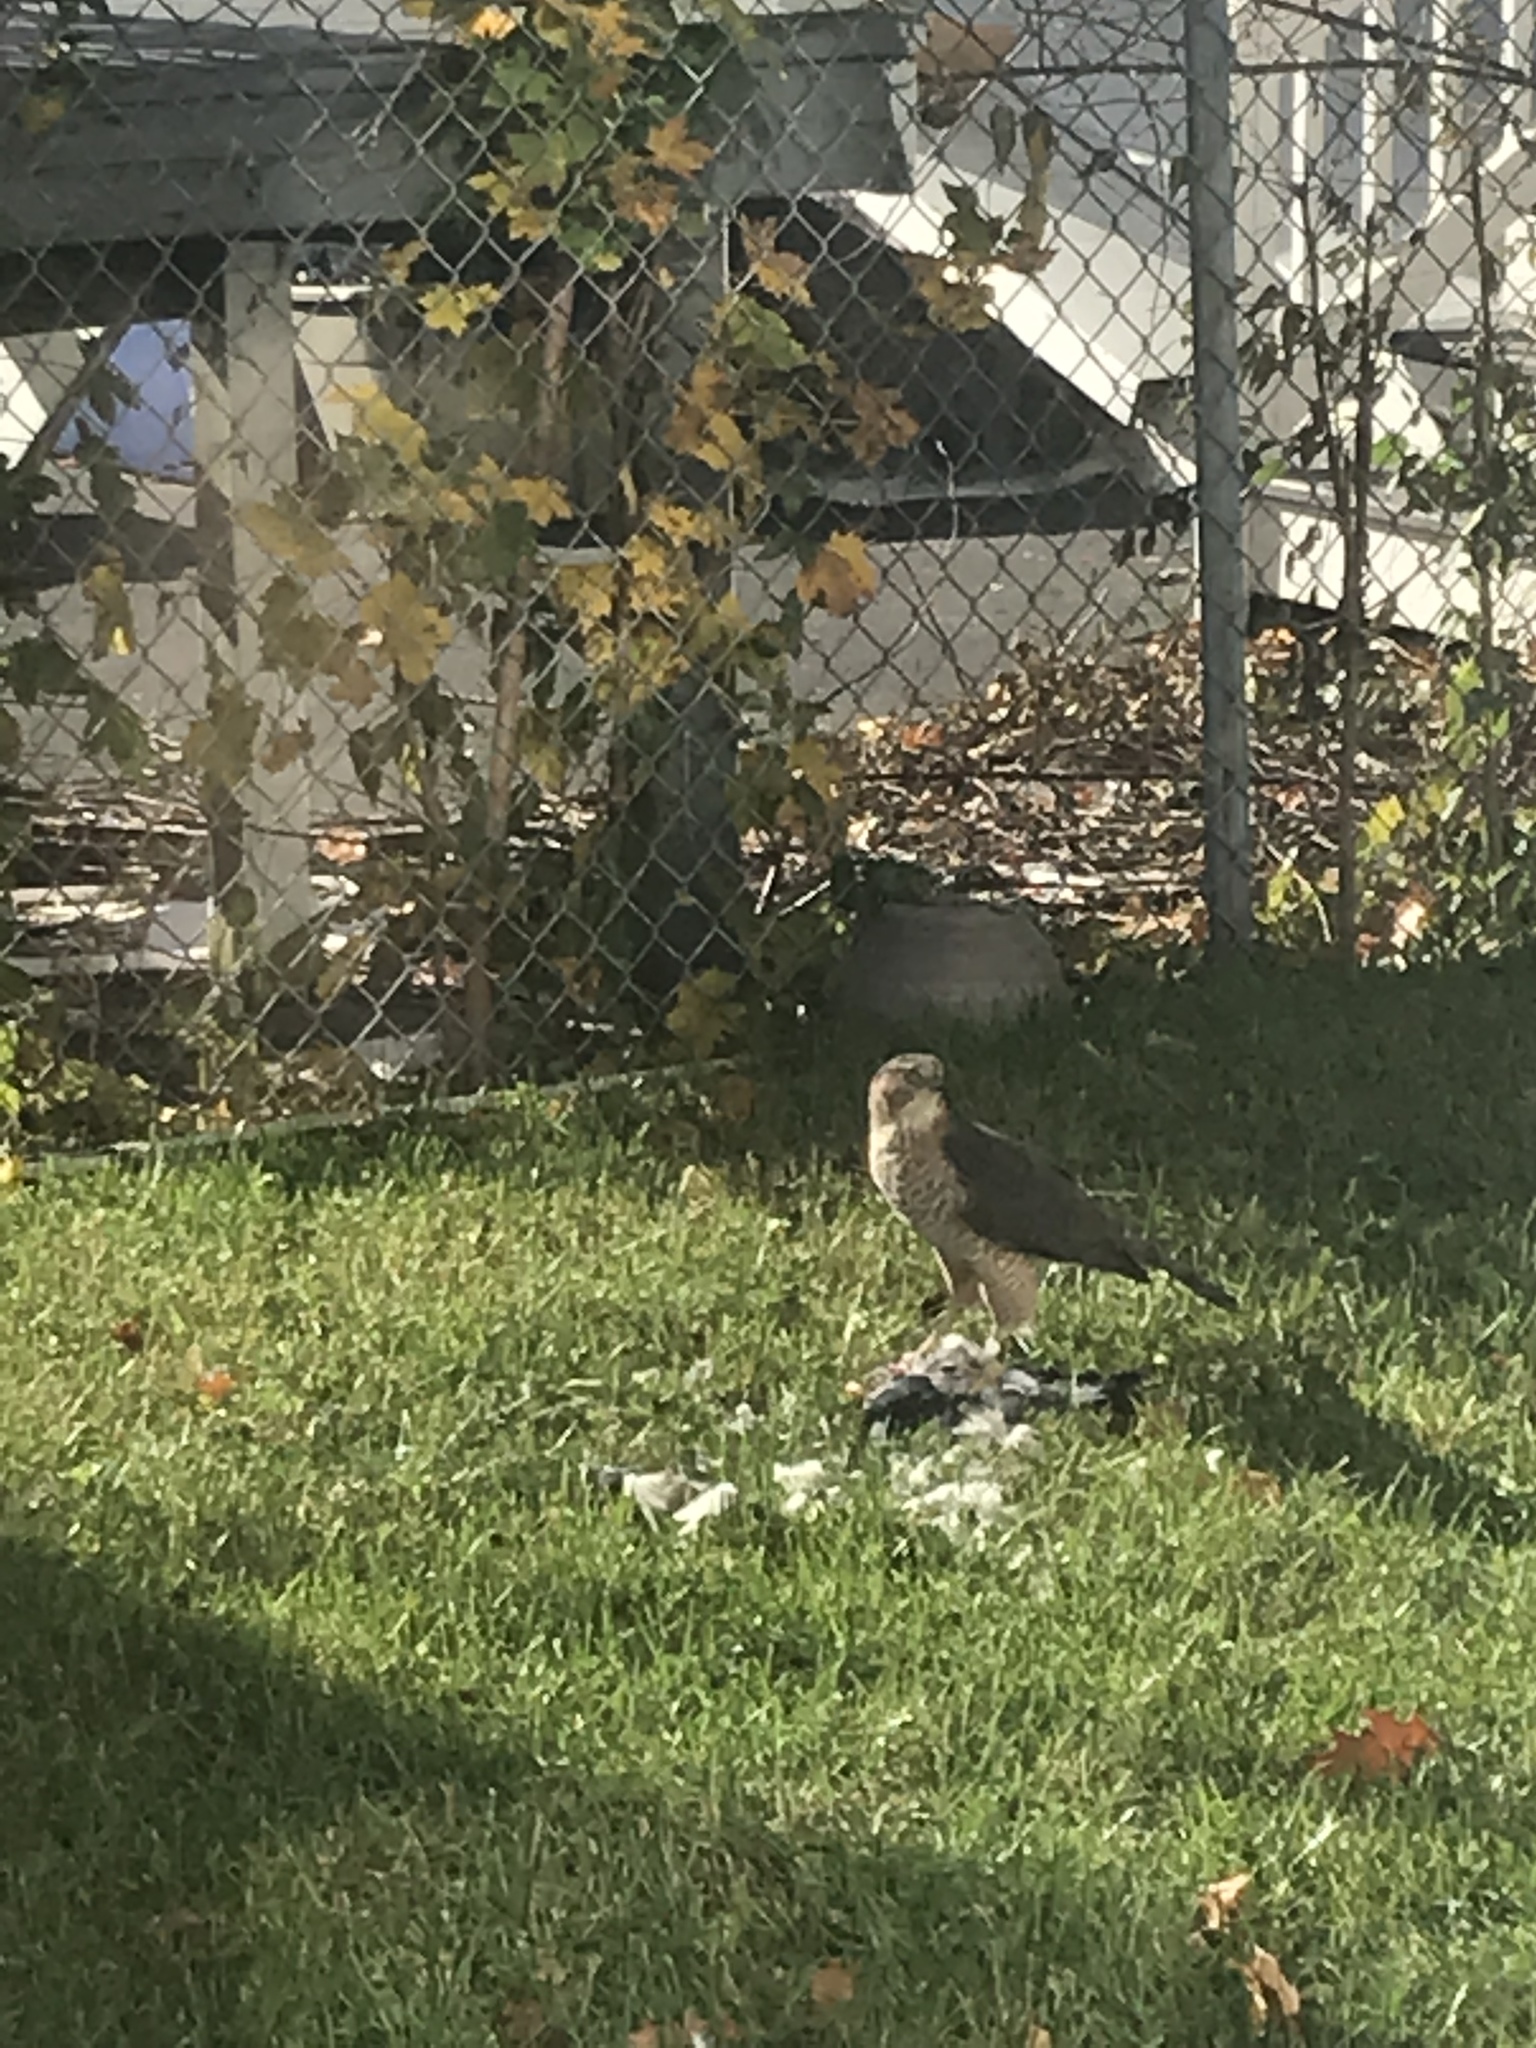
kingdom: Animalia
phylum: Chordata
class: Aves
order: Accipitriformes
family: Accipitridae
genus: Accipiter
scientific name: Accipiter cooperii
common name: Cooper's hawk
